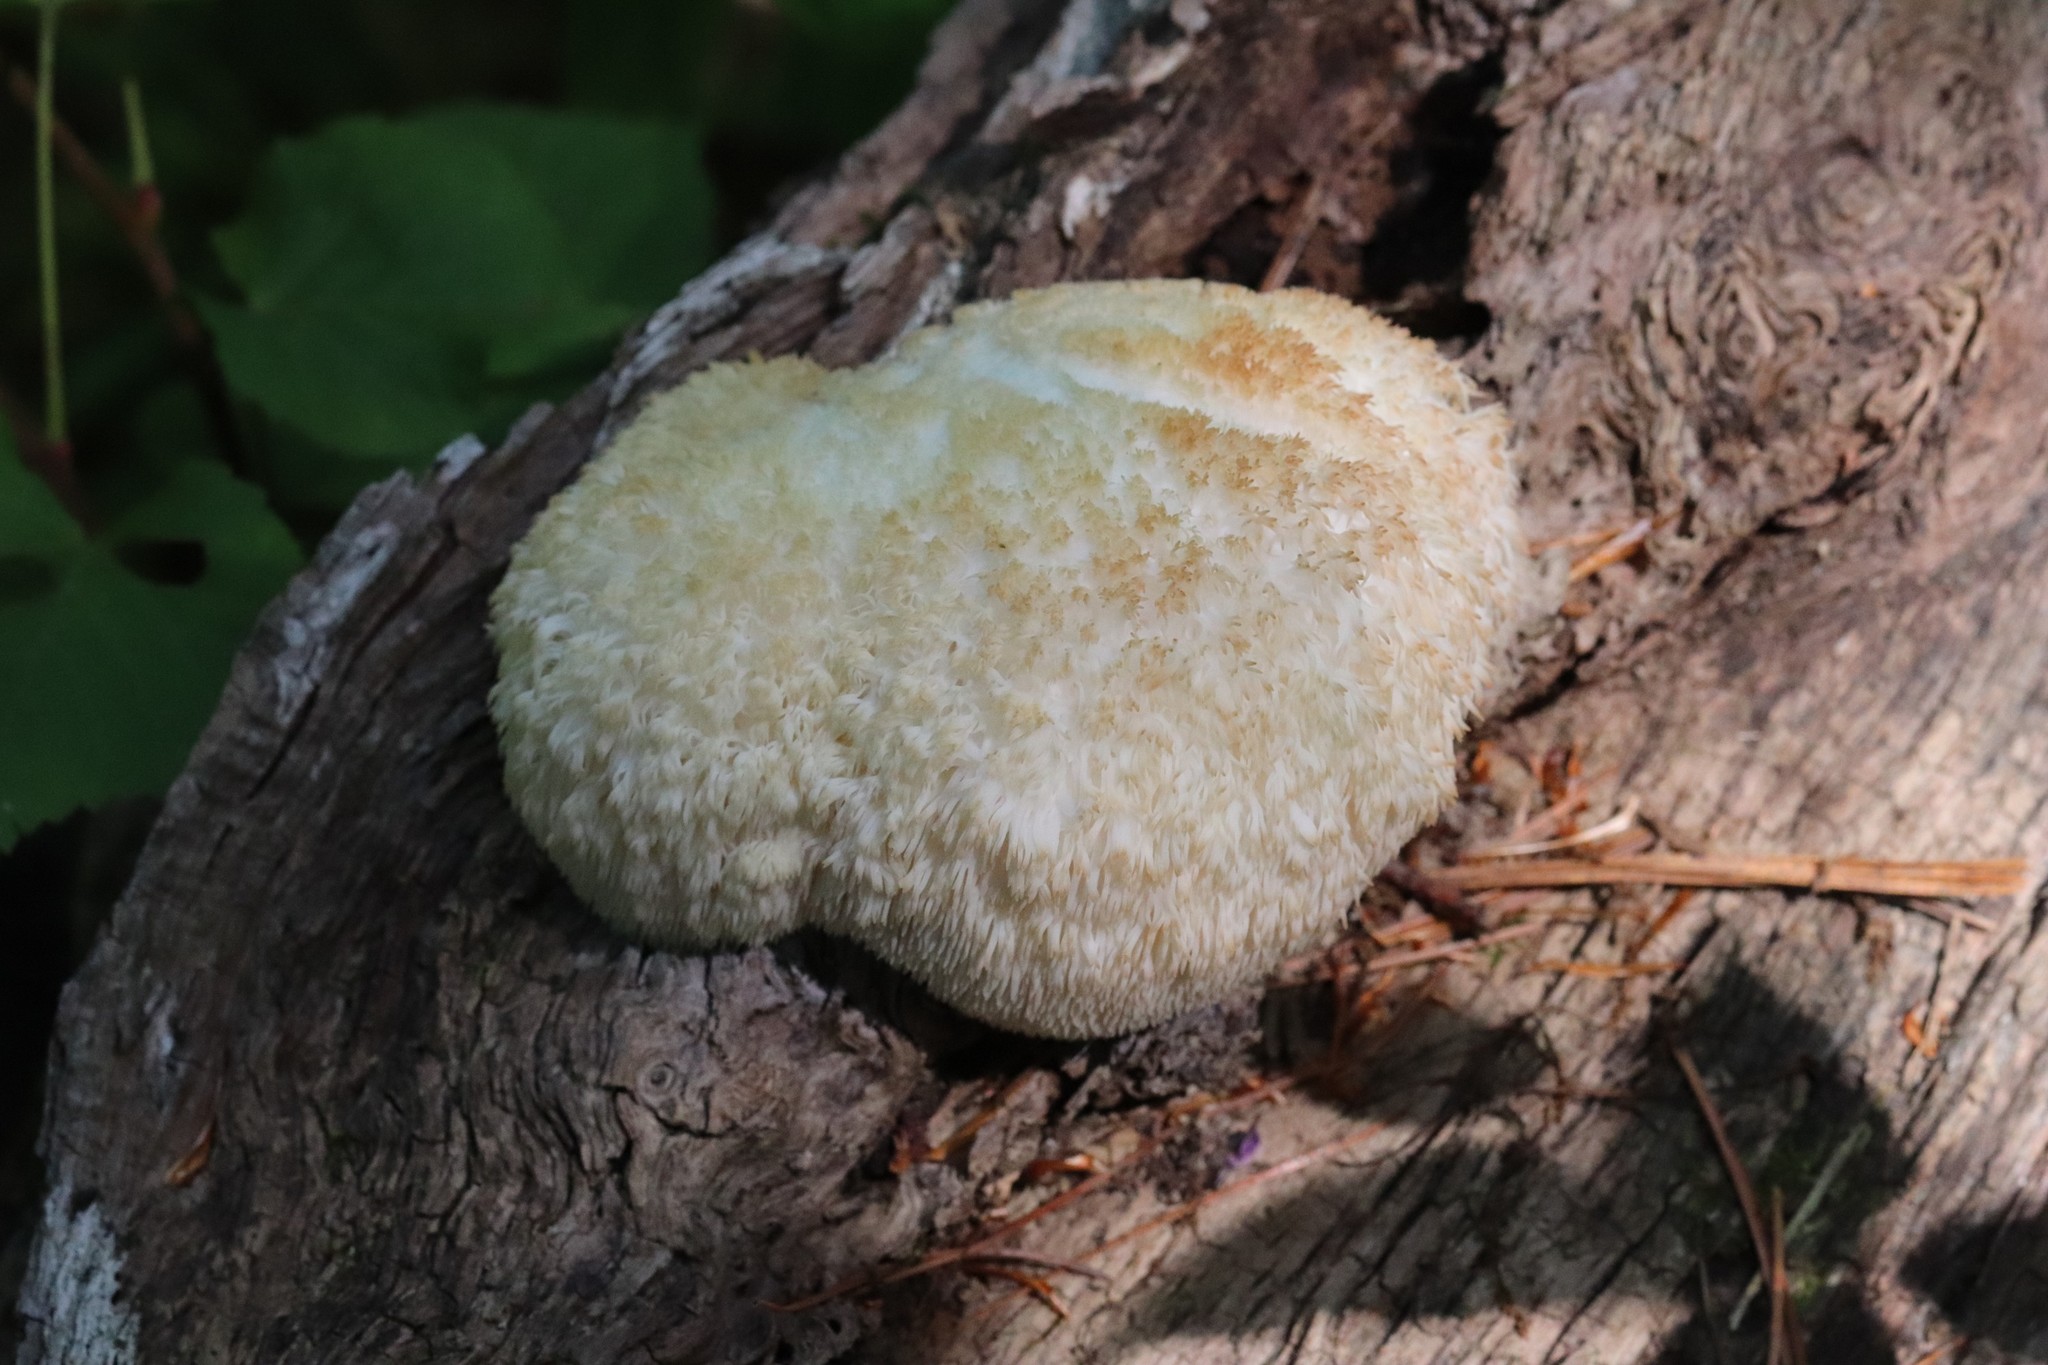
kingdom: Fungi
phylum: Basidiomycota
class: Agaricomycetes
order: Russulales
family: Hericiaceae
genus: Hericium
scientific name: Hericium erinaceus
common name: Bearded tooth
